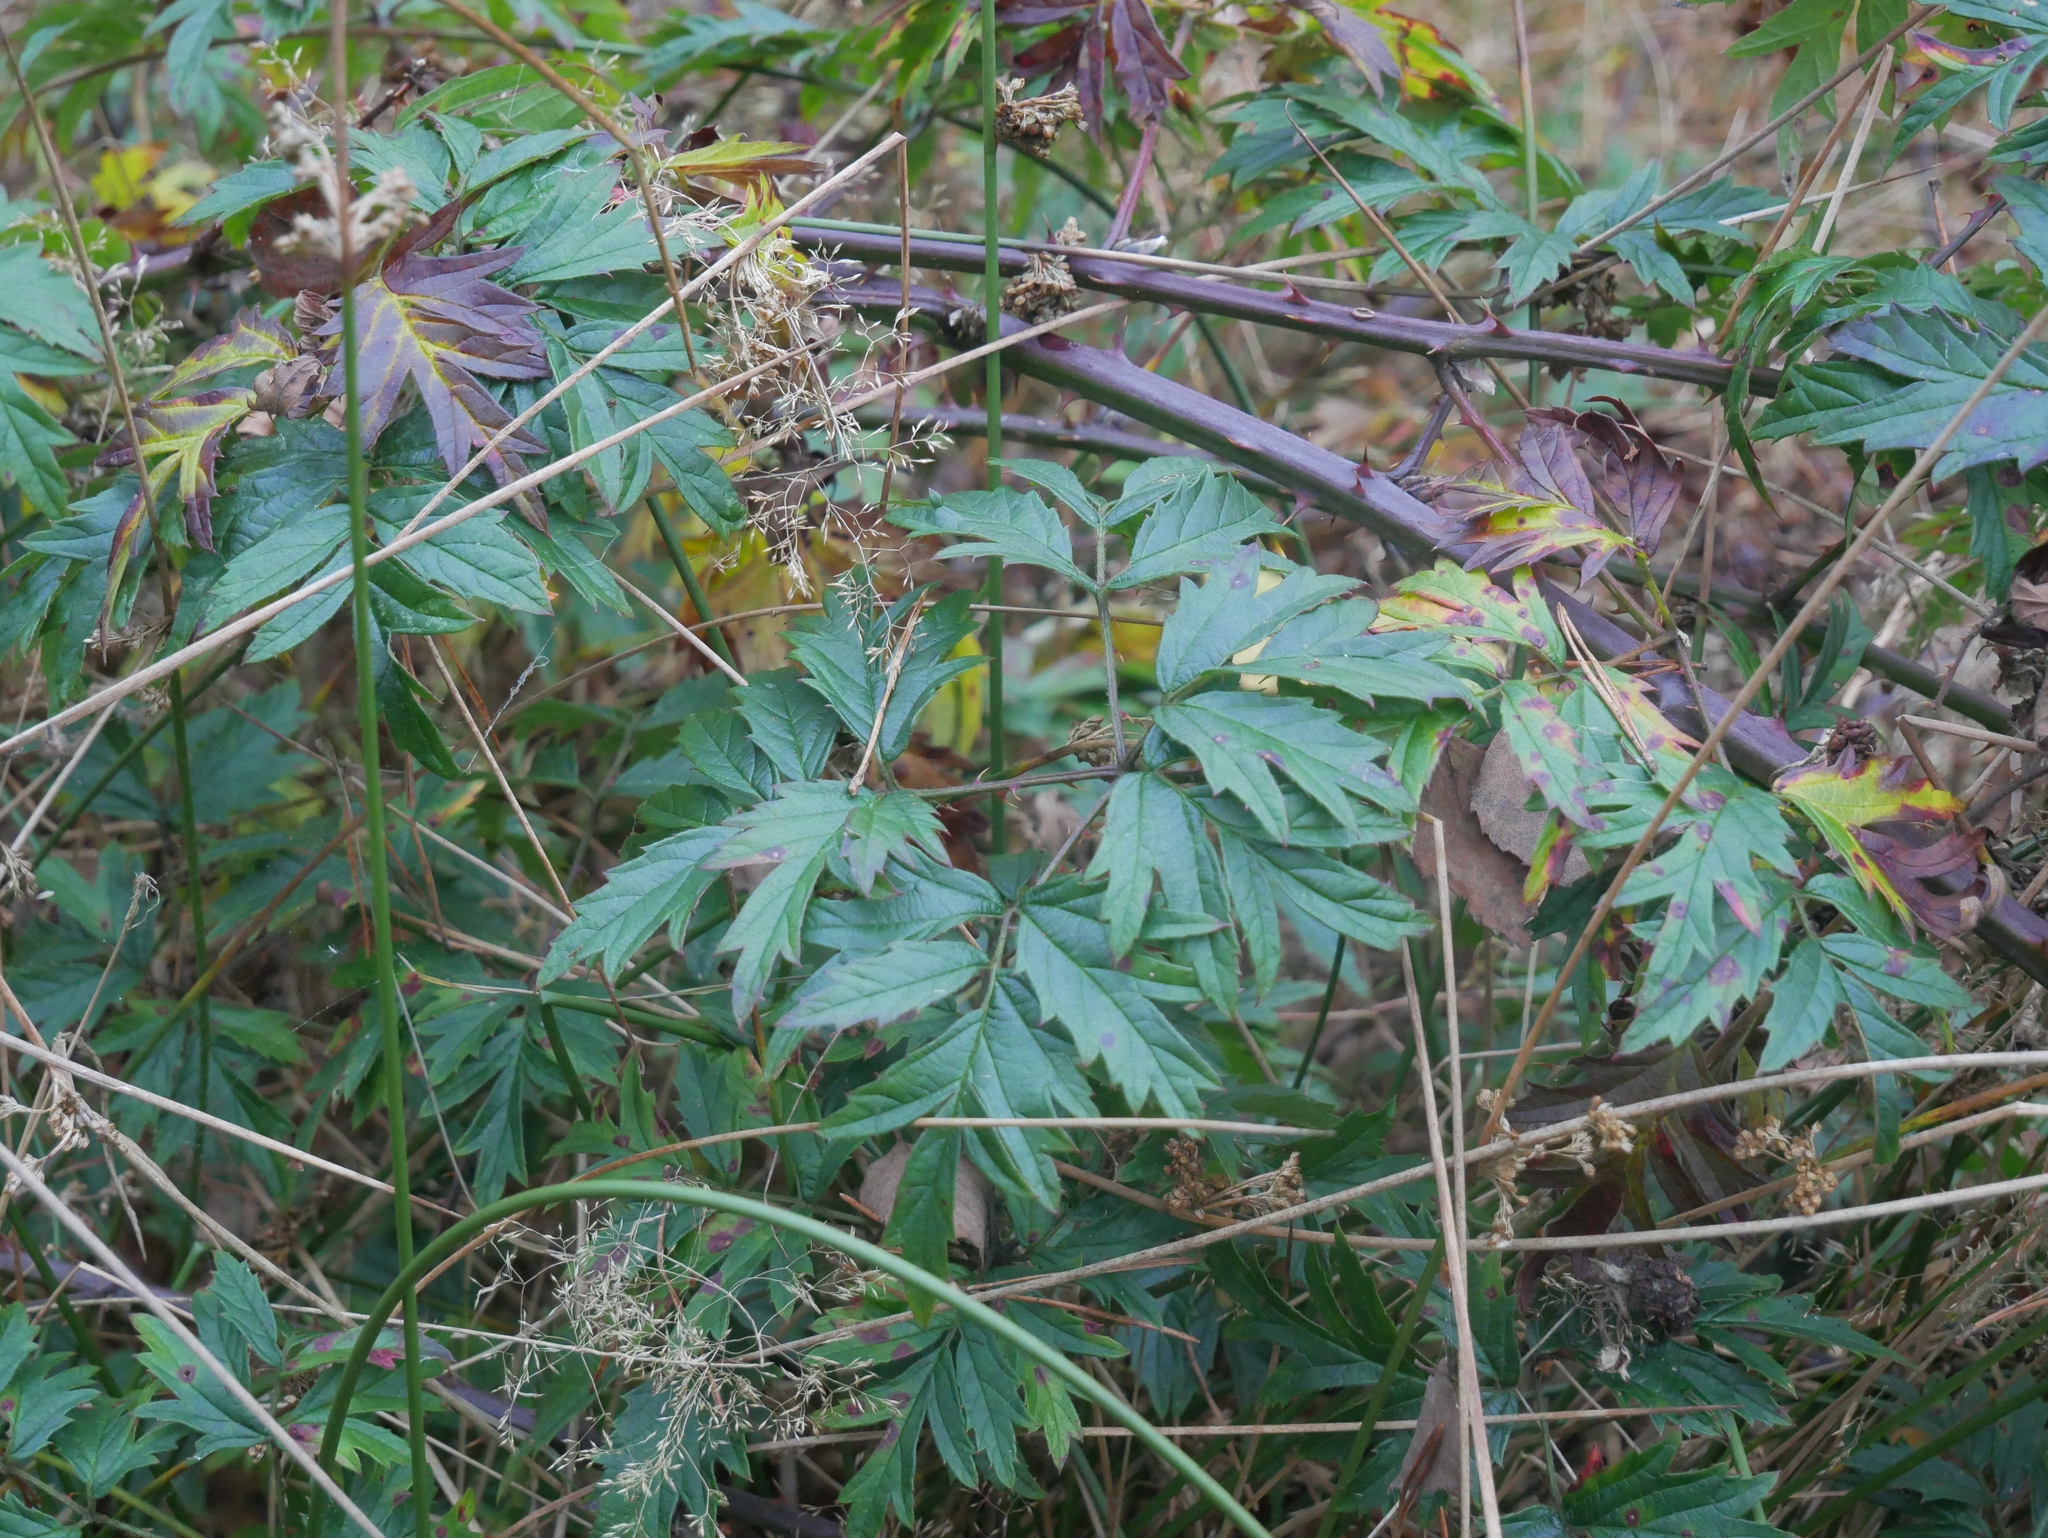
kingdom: Plantae
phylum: Tracheophyta
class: Magnoliopsida
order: Rosales
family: Rosaceae
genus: Rubus
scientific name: Rubus laciniatus
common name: Evergreen blackberry
